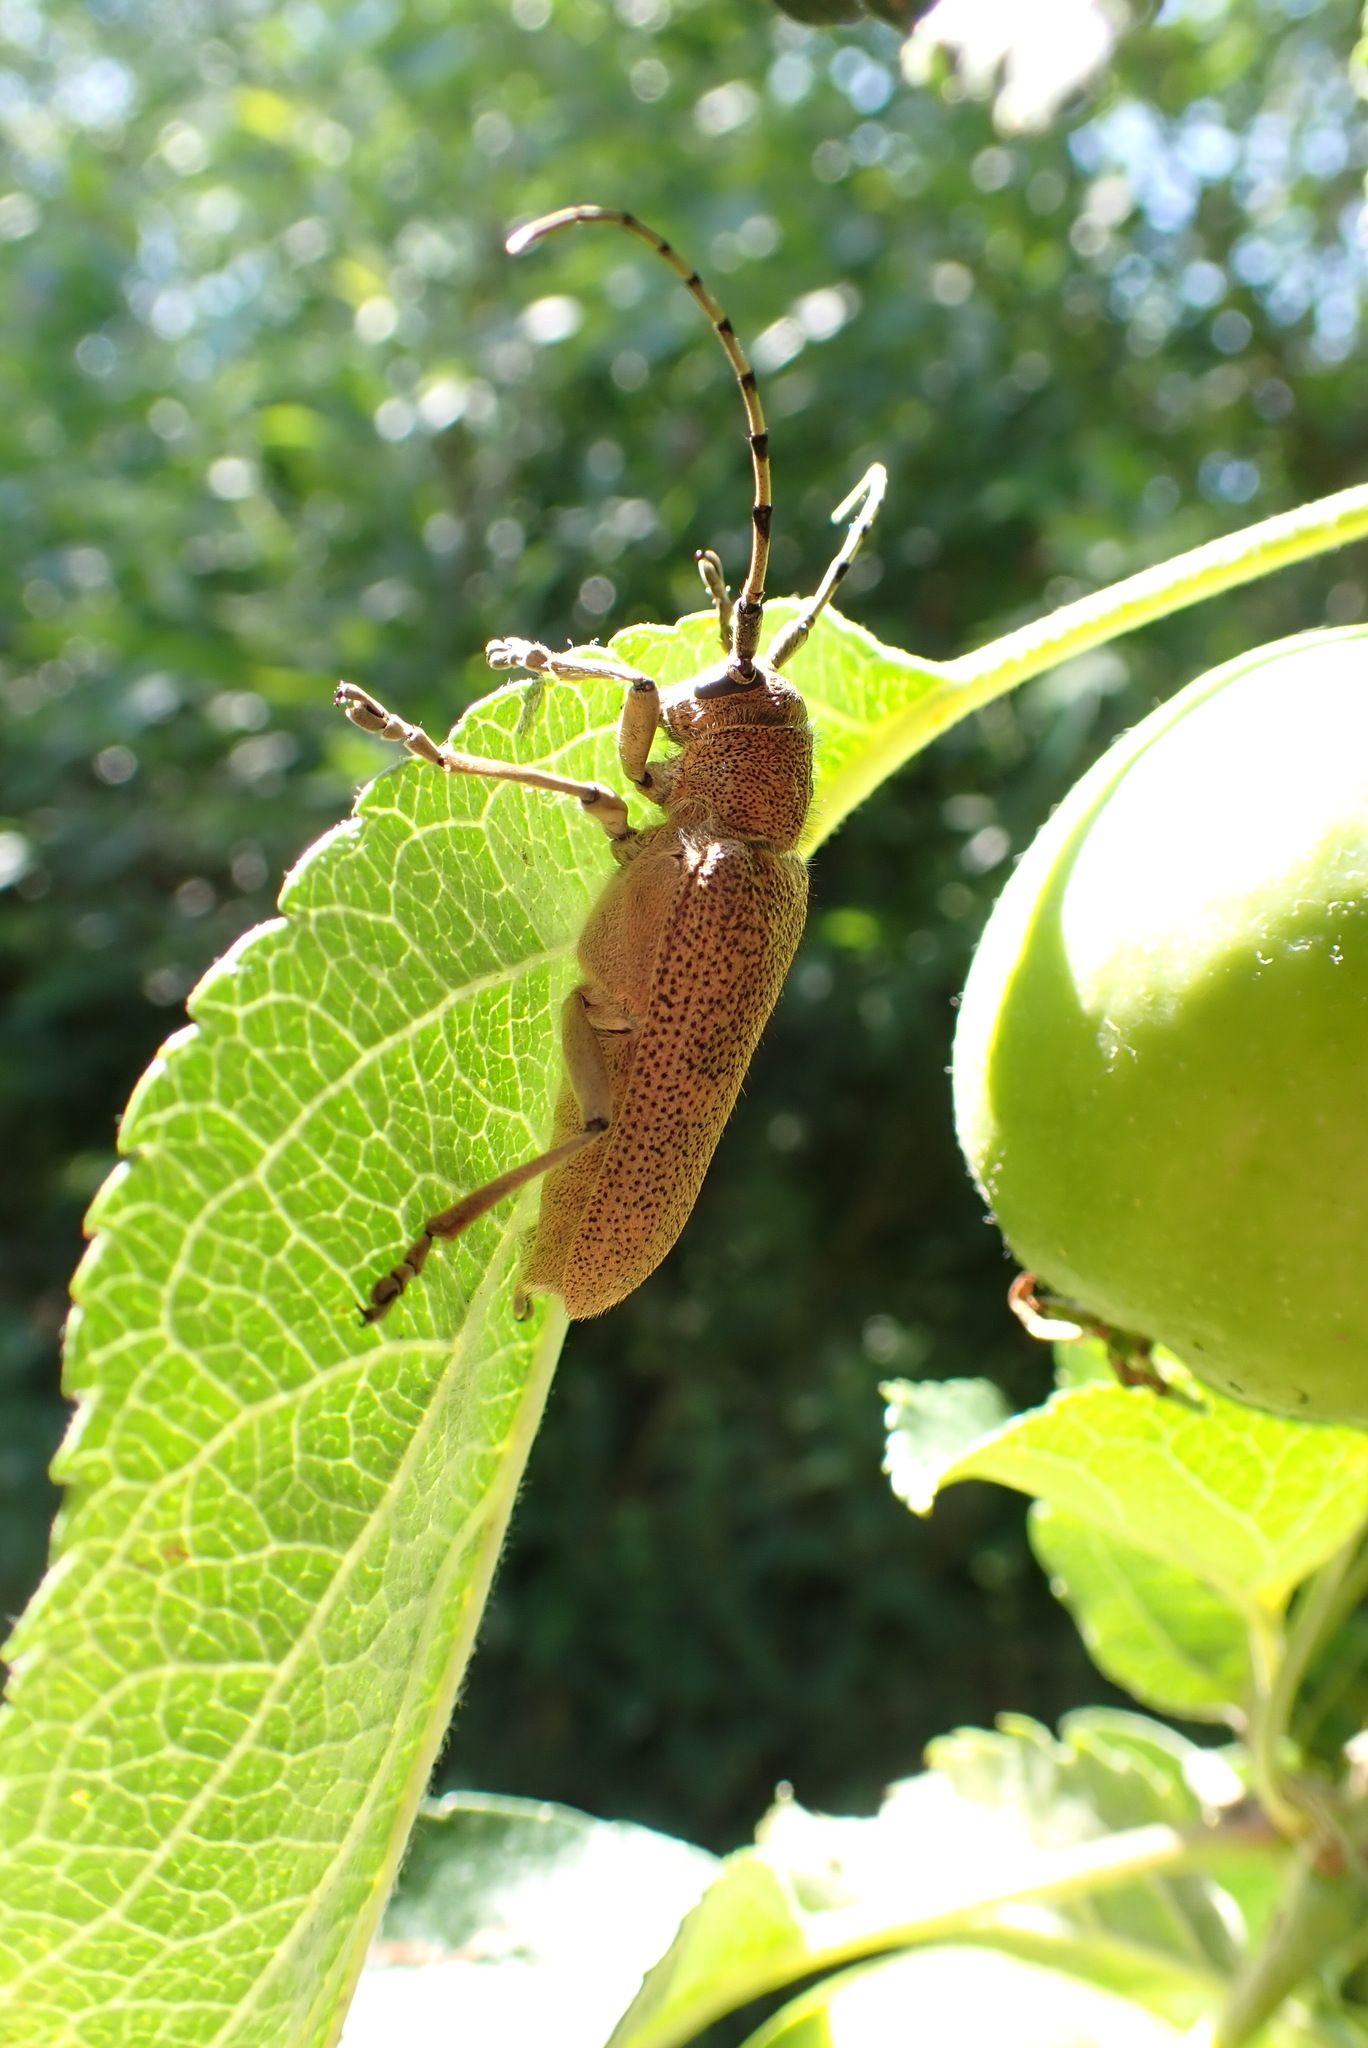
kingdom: Animalia
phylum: Arthropoda
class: Insecta
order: Coleoptera
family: Cerambycidae
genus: Saperda
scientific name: Saperda carcharias
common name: Poplar borer
